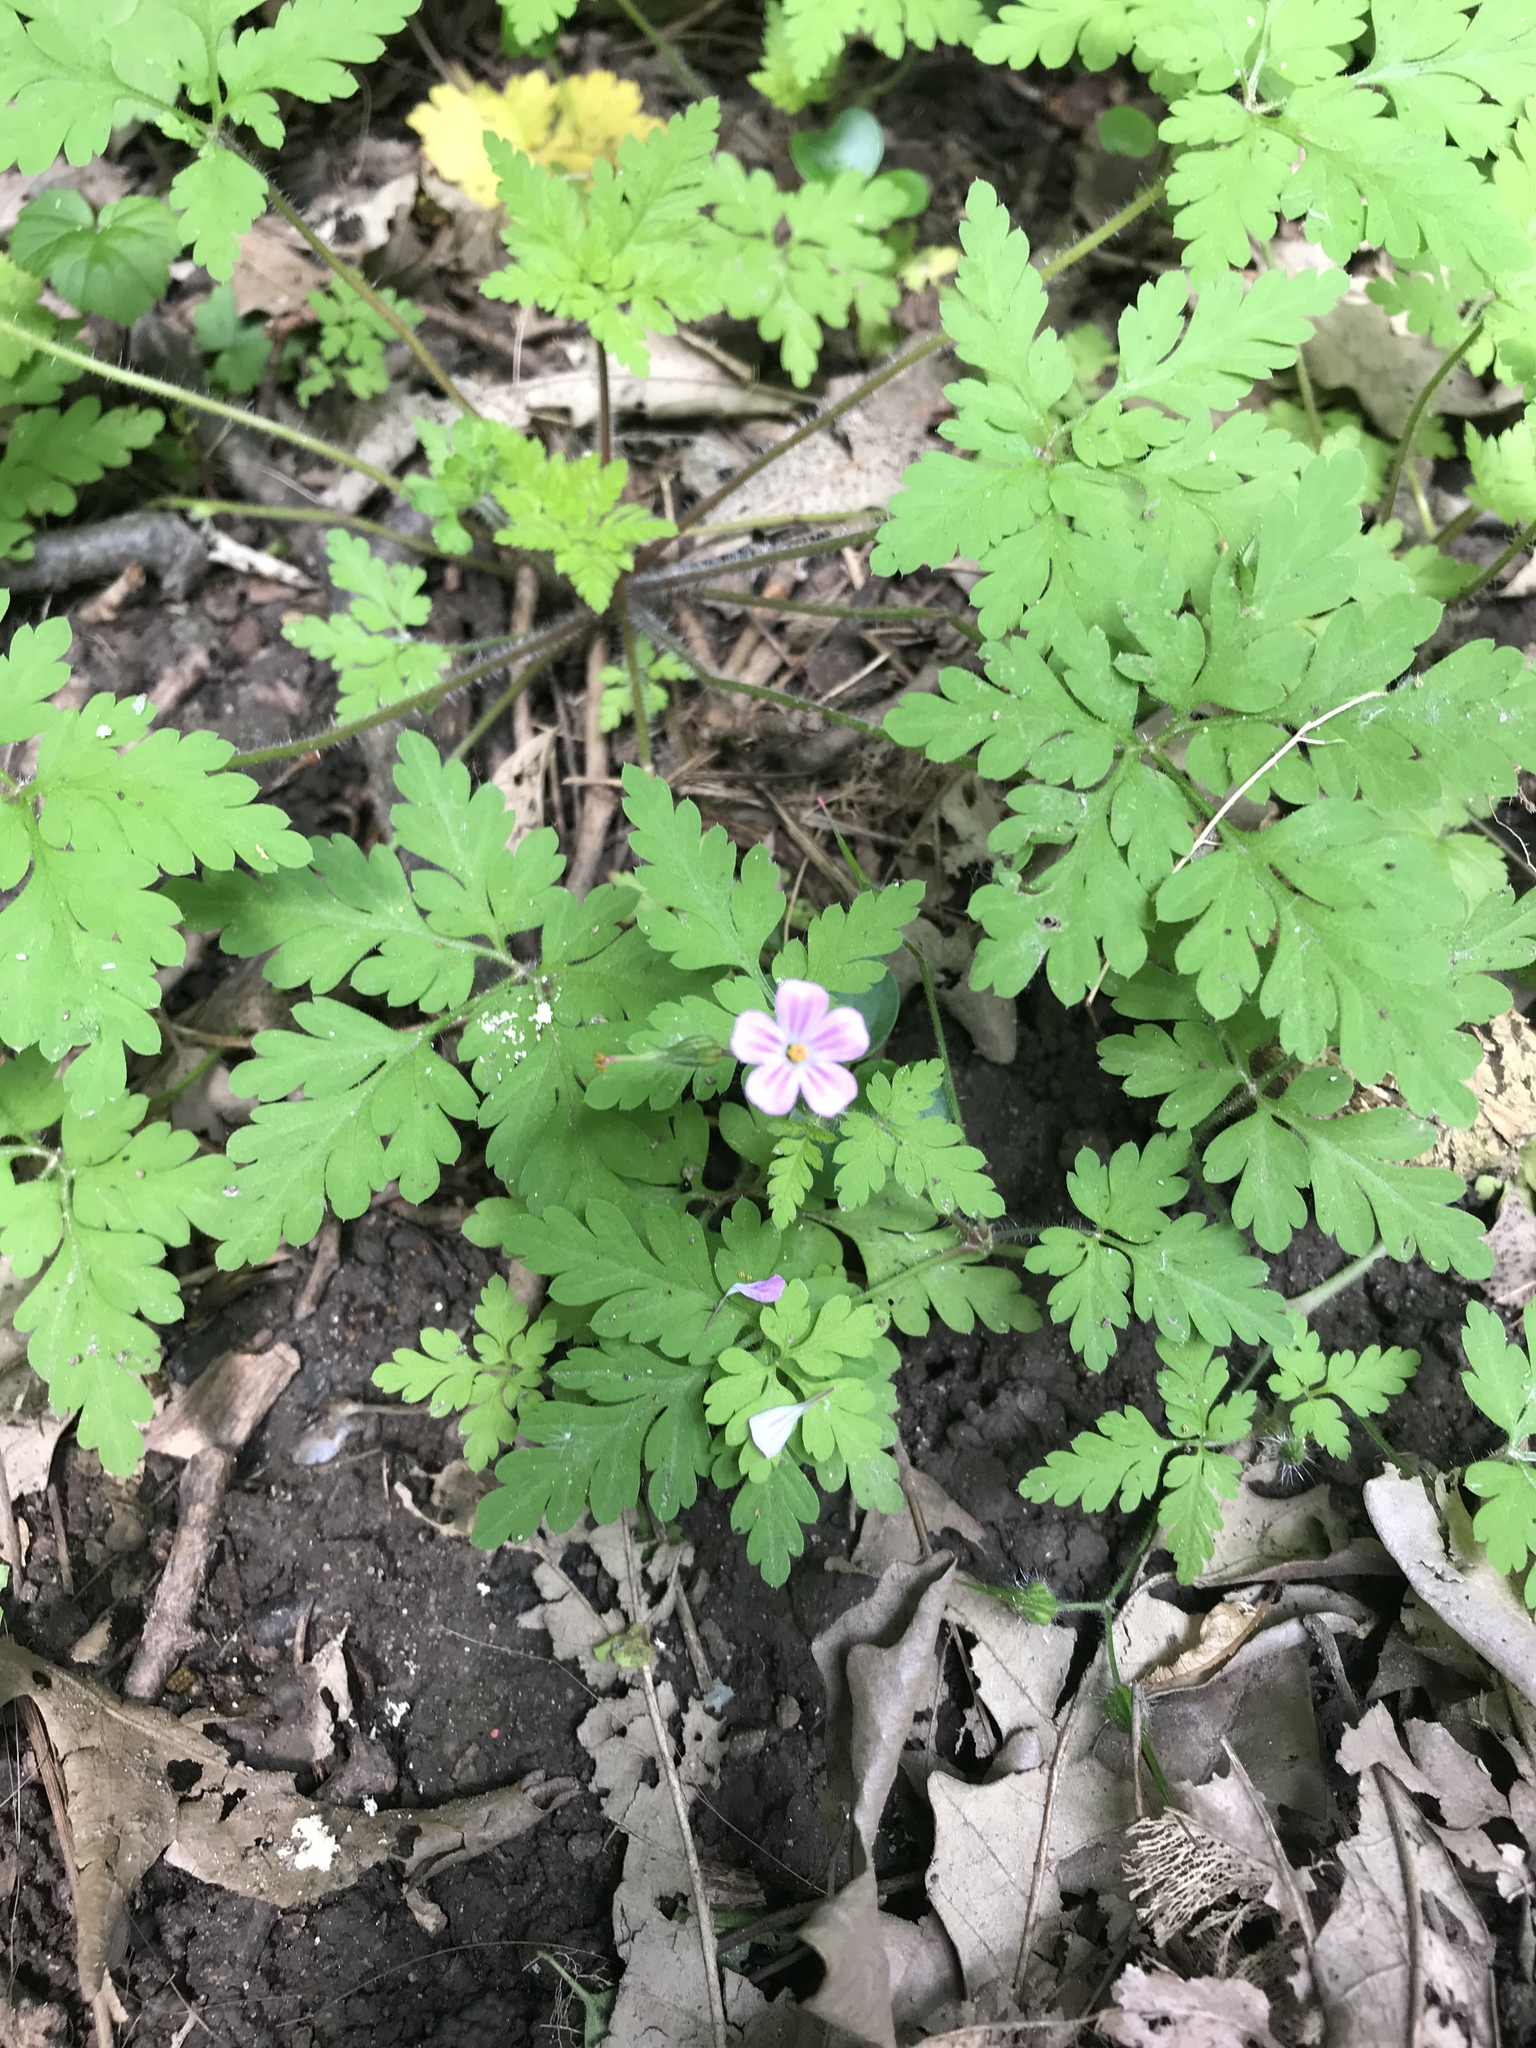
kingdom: Plantae
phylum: Tracheophyta
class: Magnoliopsida
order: Geraniales
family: Geraniaceae
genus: Geranium
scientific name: Geranium robertianum
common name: Herb-robert
